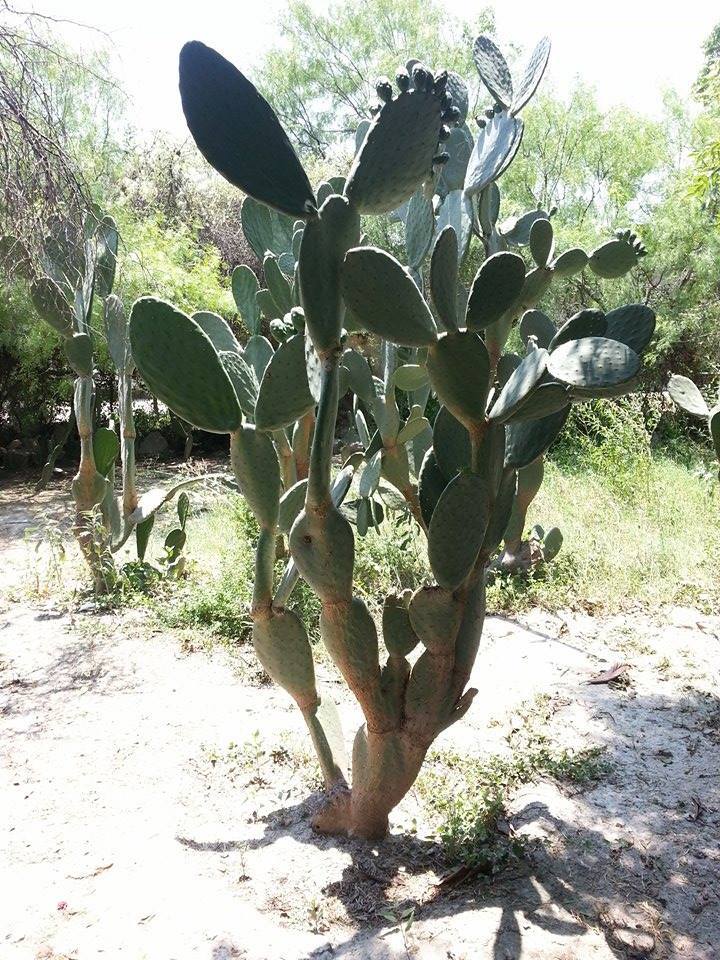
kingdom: Plantae
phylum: Tracheophyta
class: Magnoliopsida
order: Caryophyllales
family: Cactaceae
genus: Opuntia
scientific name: Opuntia ficus-indica
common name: Barbary fig
